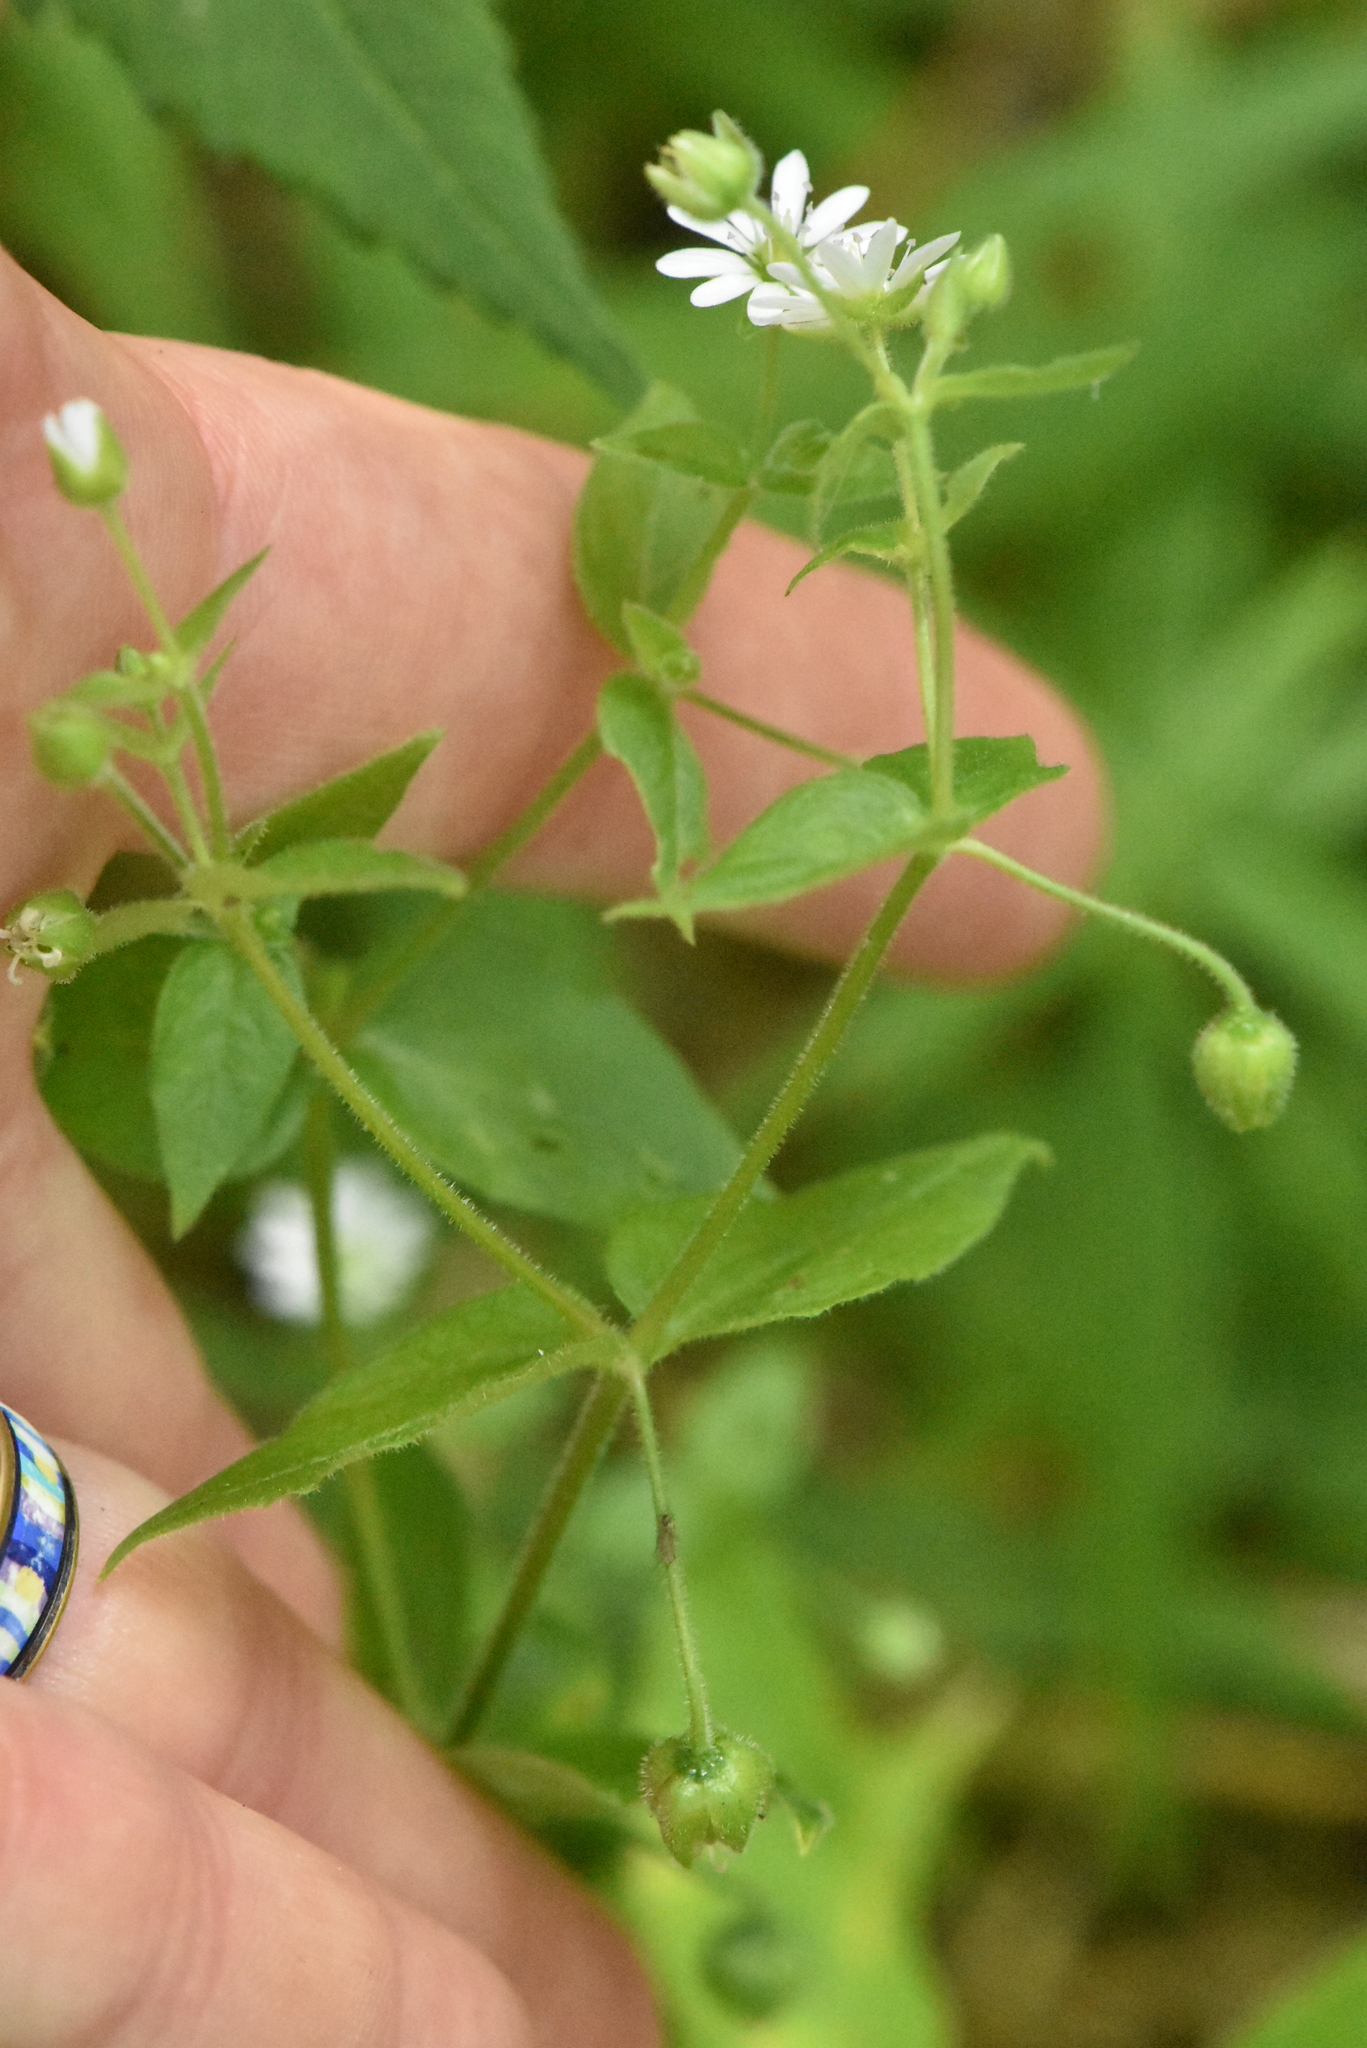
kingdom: Plantae
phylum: Tracheophyta
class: Magnoliopsida
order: Caryophyllales
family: Caryophyllaceae
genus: Stellaria
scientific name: Stellaria aquatica
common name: Water chickweed
